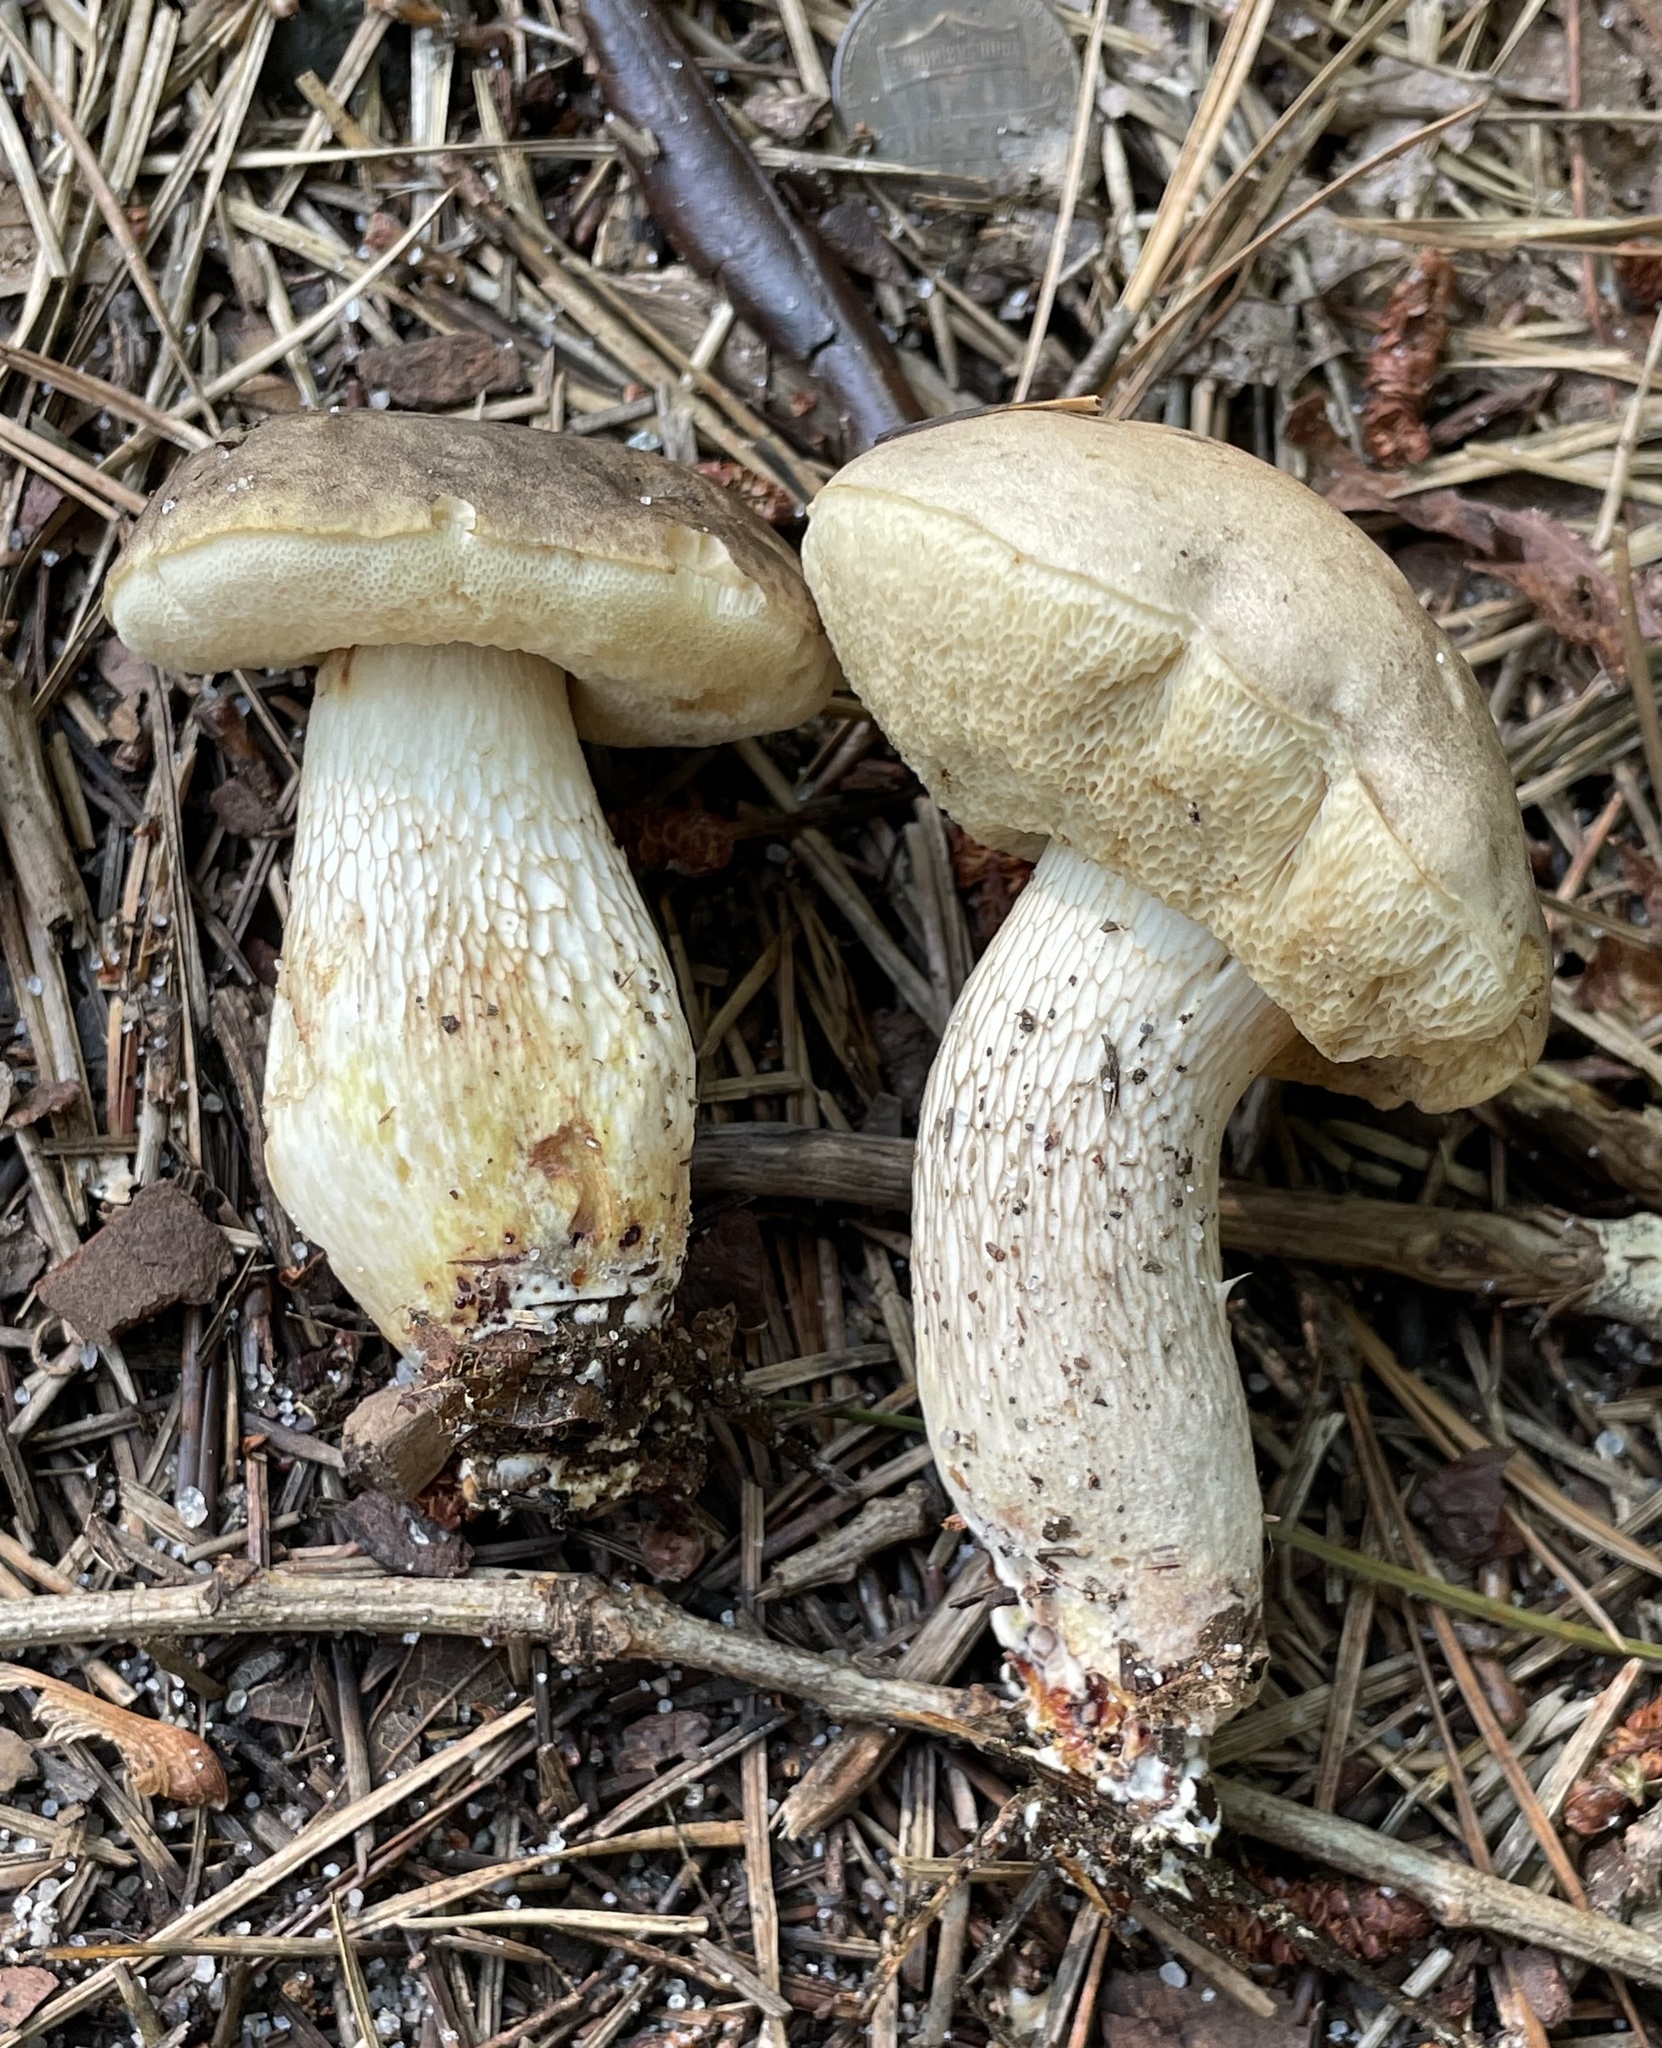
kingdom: Fungi
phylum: Basidiomycota
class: Agaricomycetes
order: Boletales
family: Boletaceae
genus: Retiboletus
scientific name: Retiboletus vinaceipes
